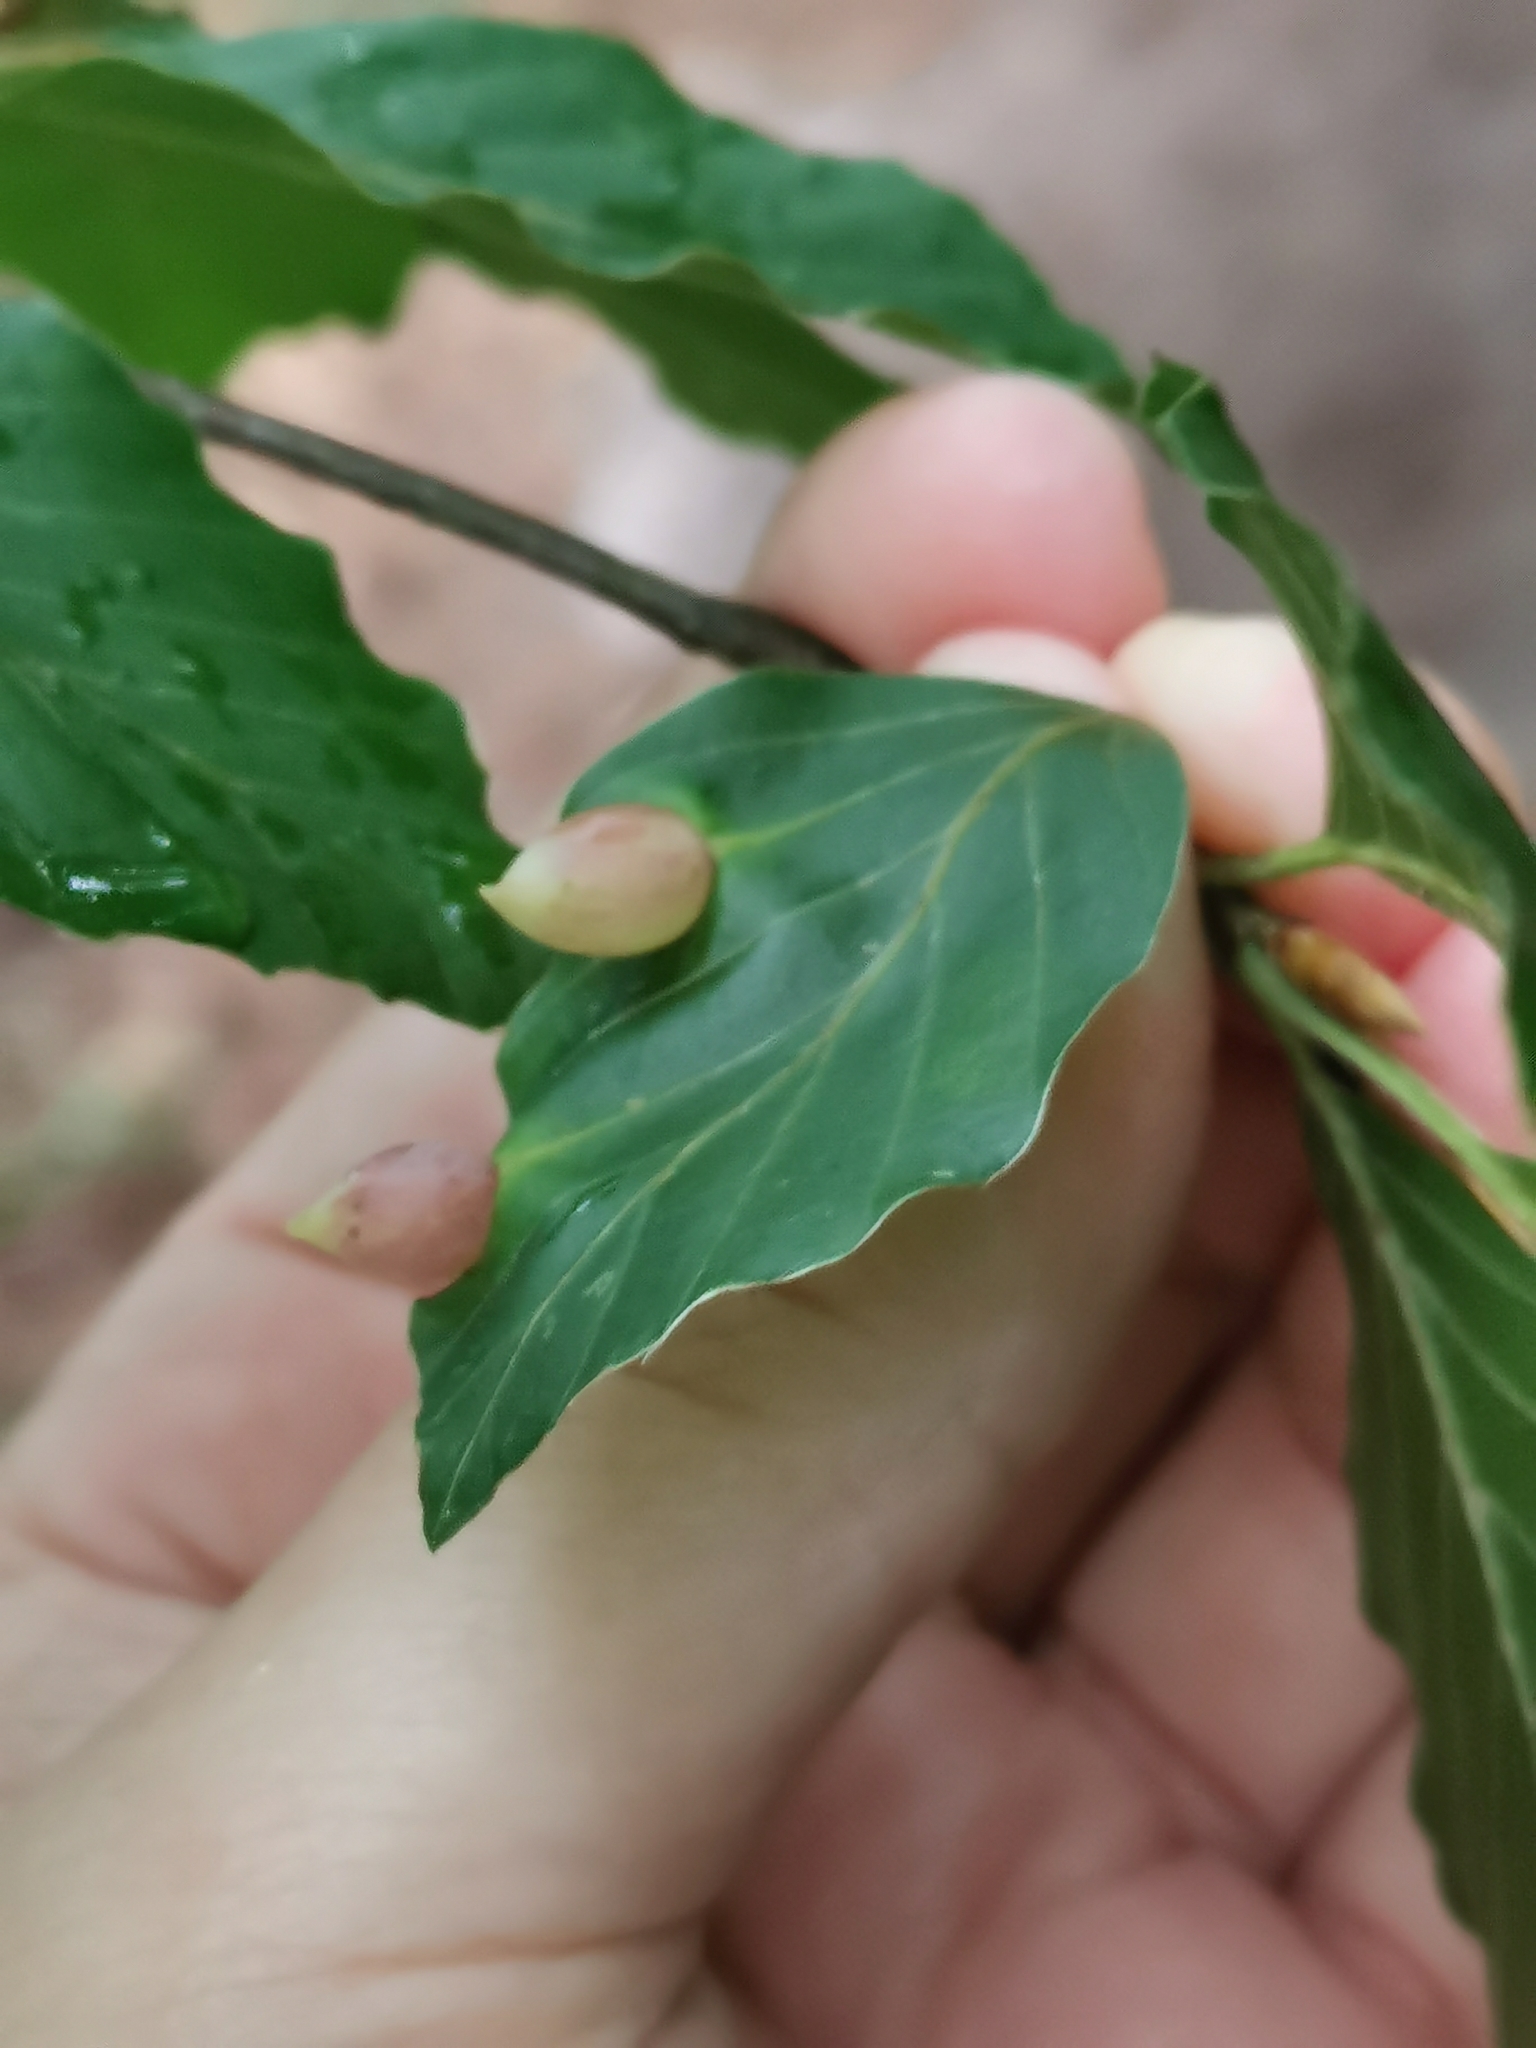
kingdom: Animalia
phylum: Arthropoda
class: Insecta
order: Diptera
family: Cecidomyiidae
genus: Mikiola
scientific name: Mikiola fagi
